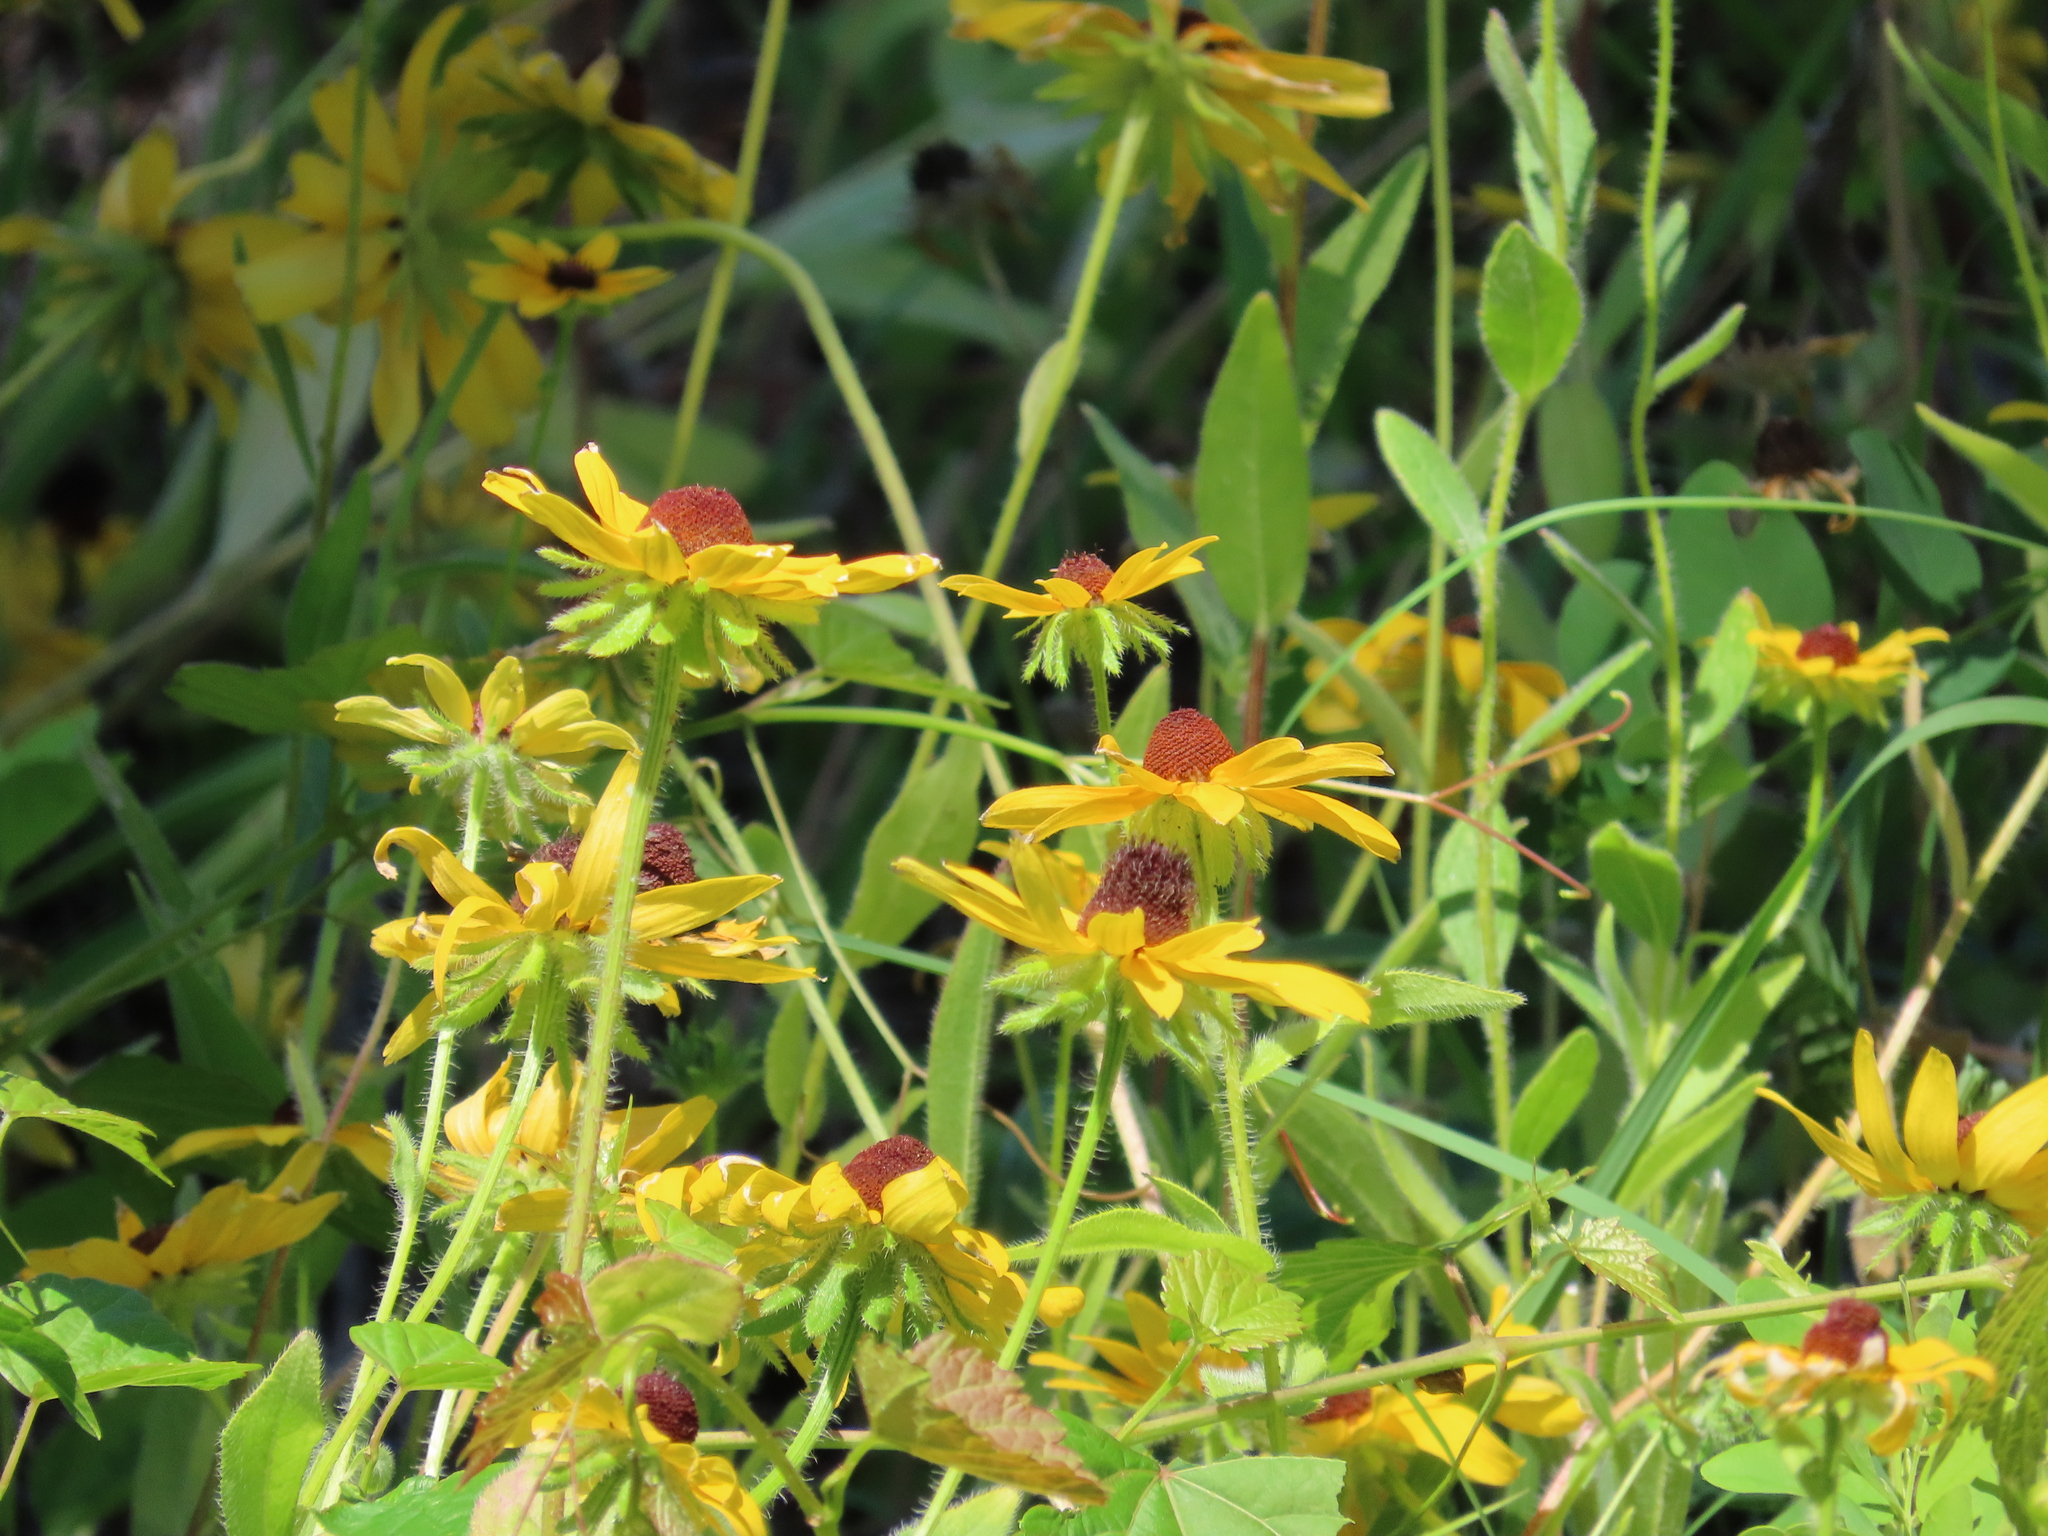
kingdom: Plantae
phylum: Tracheophyta
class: Magnoliopsida
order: Asterales
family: Asteraceae
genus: Rudbeckia
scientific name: Rudbeckia hirta
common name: Black-eyed-susan
